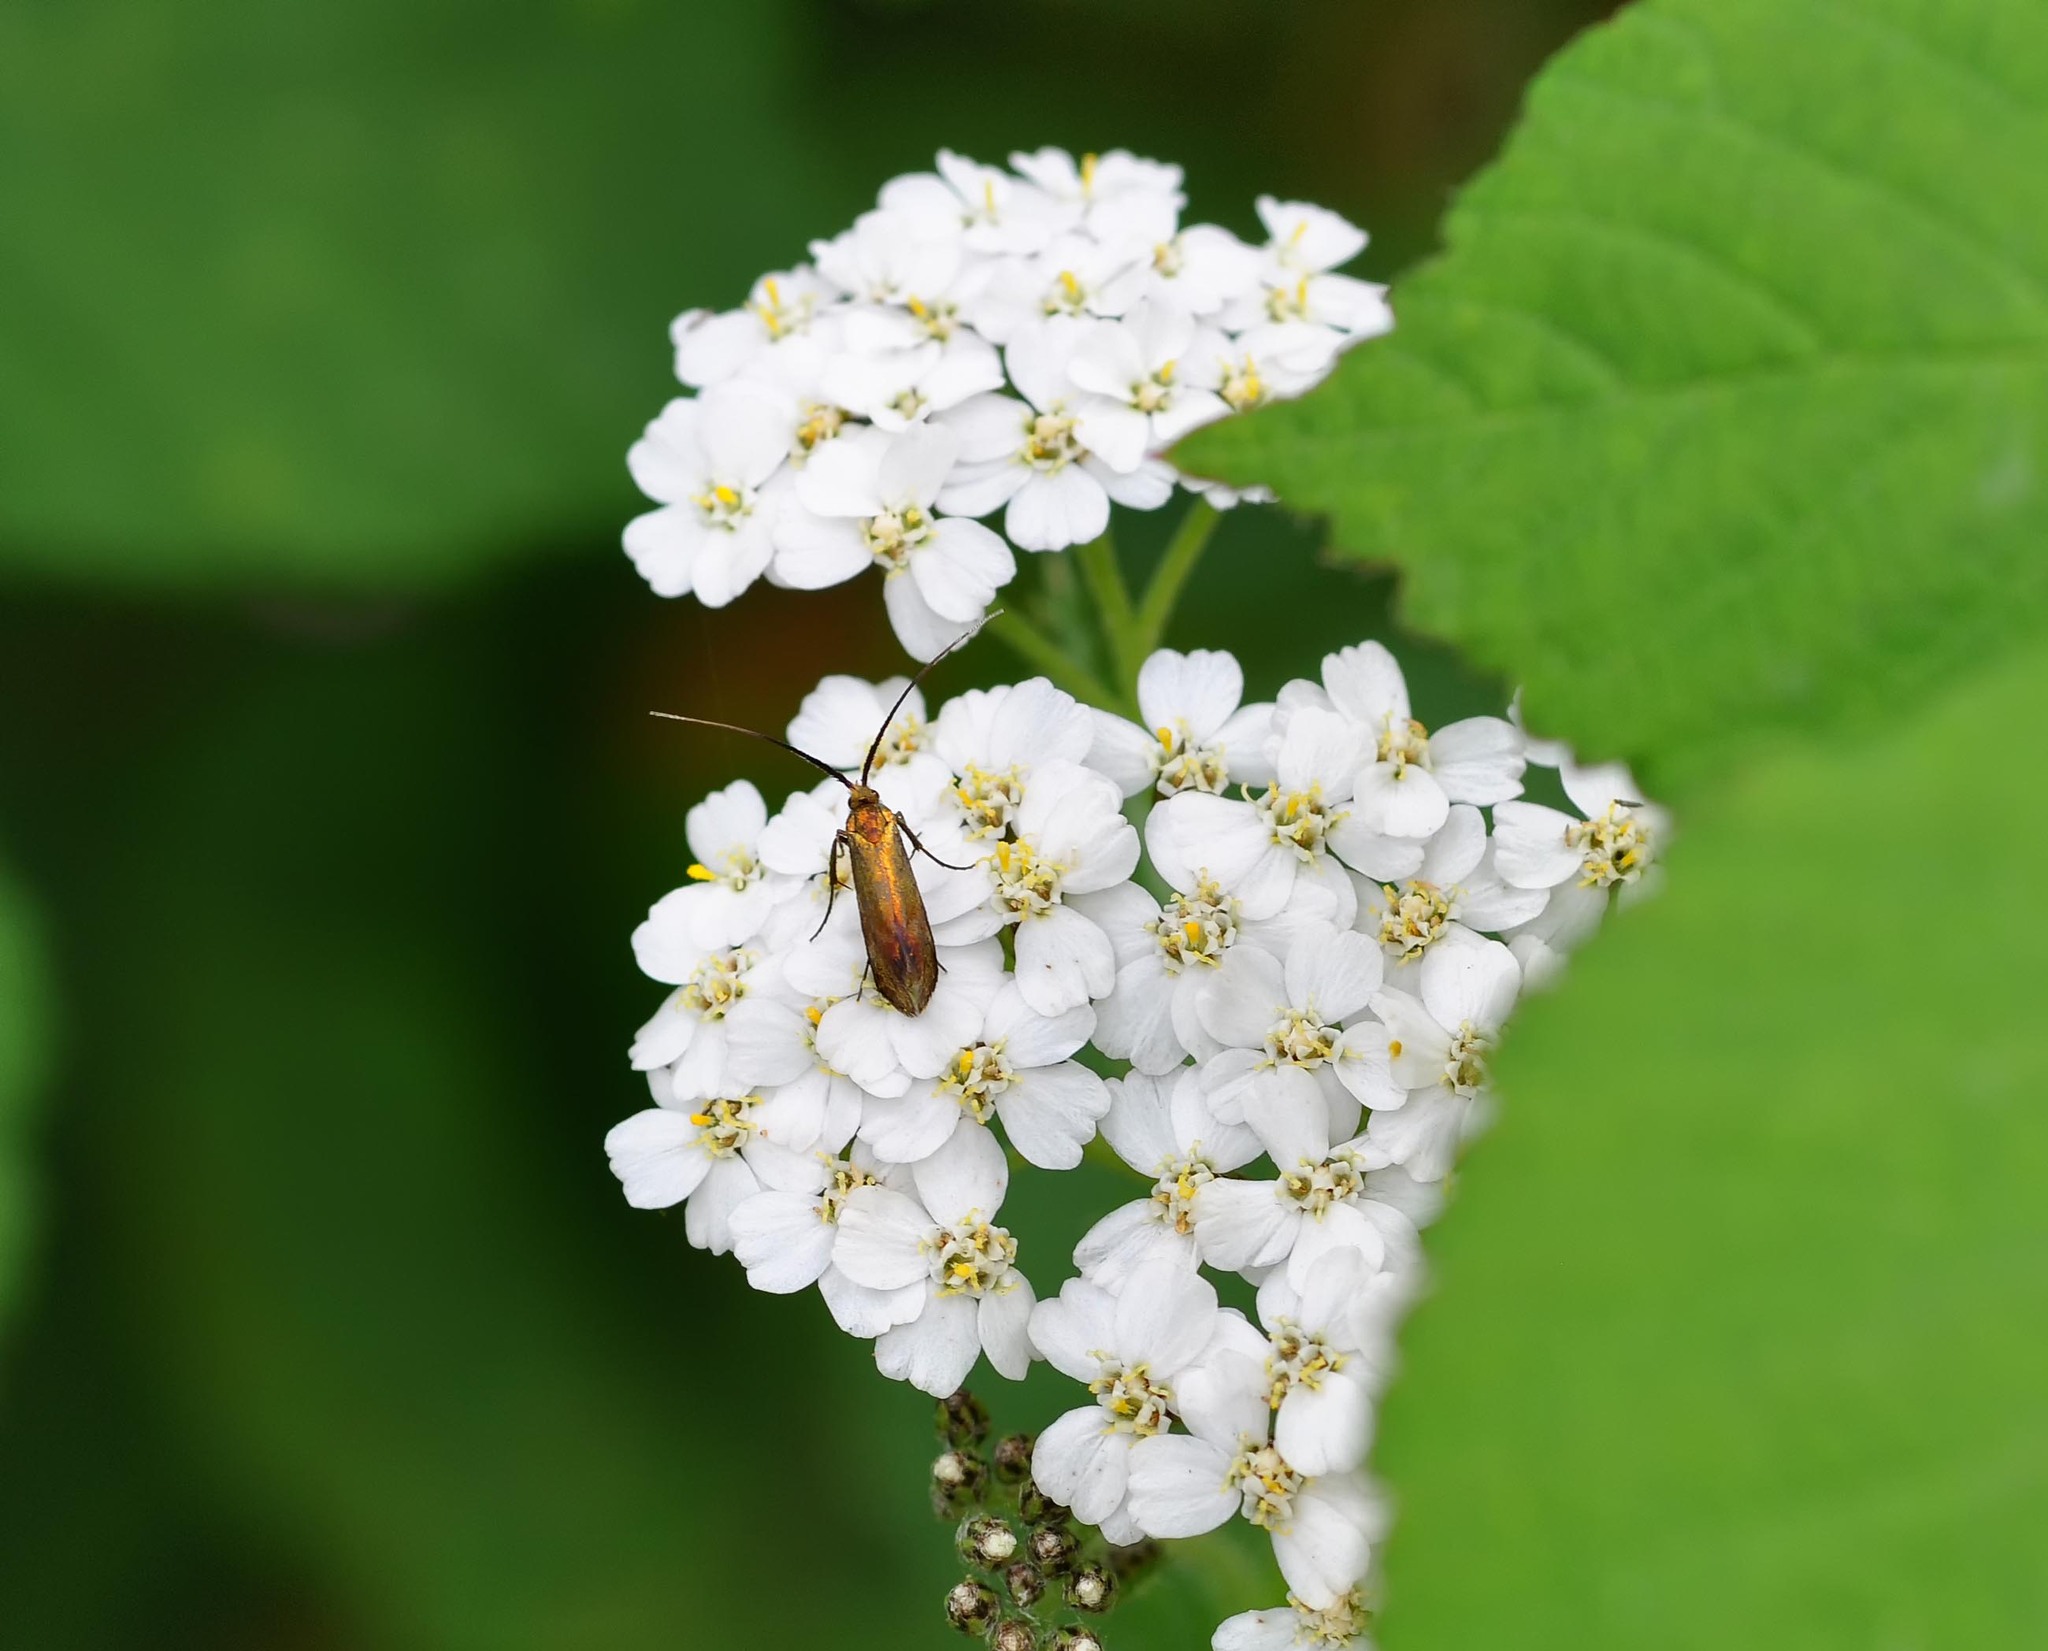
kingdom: Animalia
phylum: Arthropoda
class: Insecta
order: Lepidoptera
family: Adelidae
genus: Cauchas
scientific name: Cauchas rufimitrella
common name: Meadow long-horn
